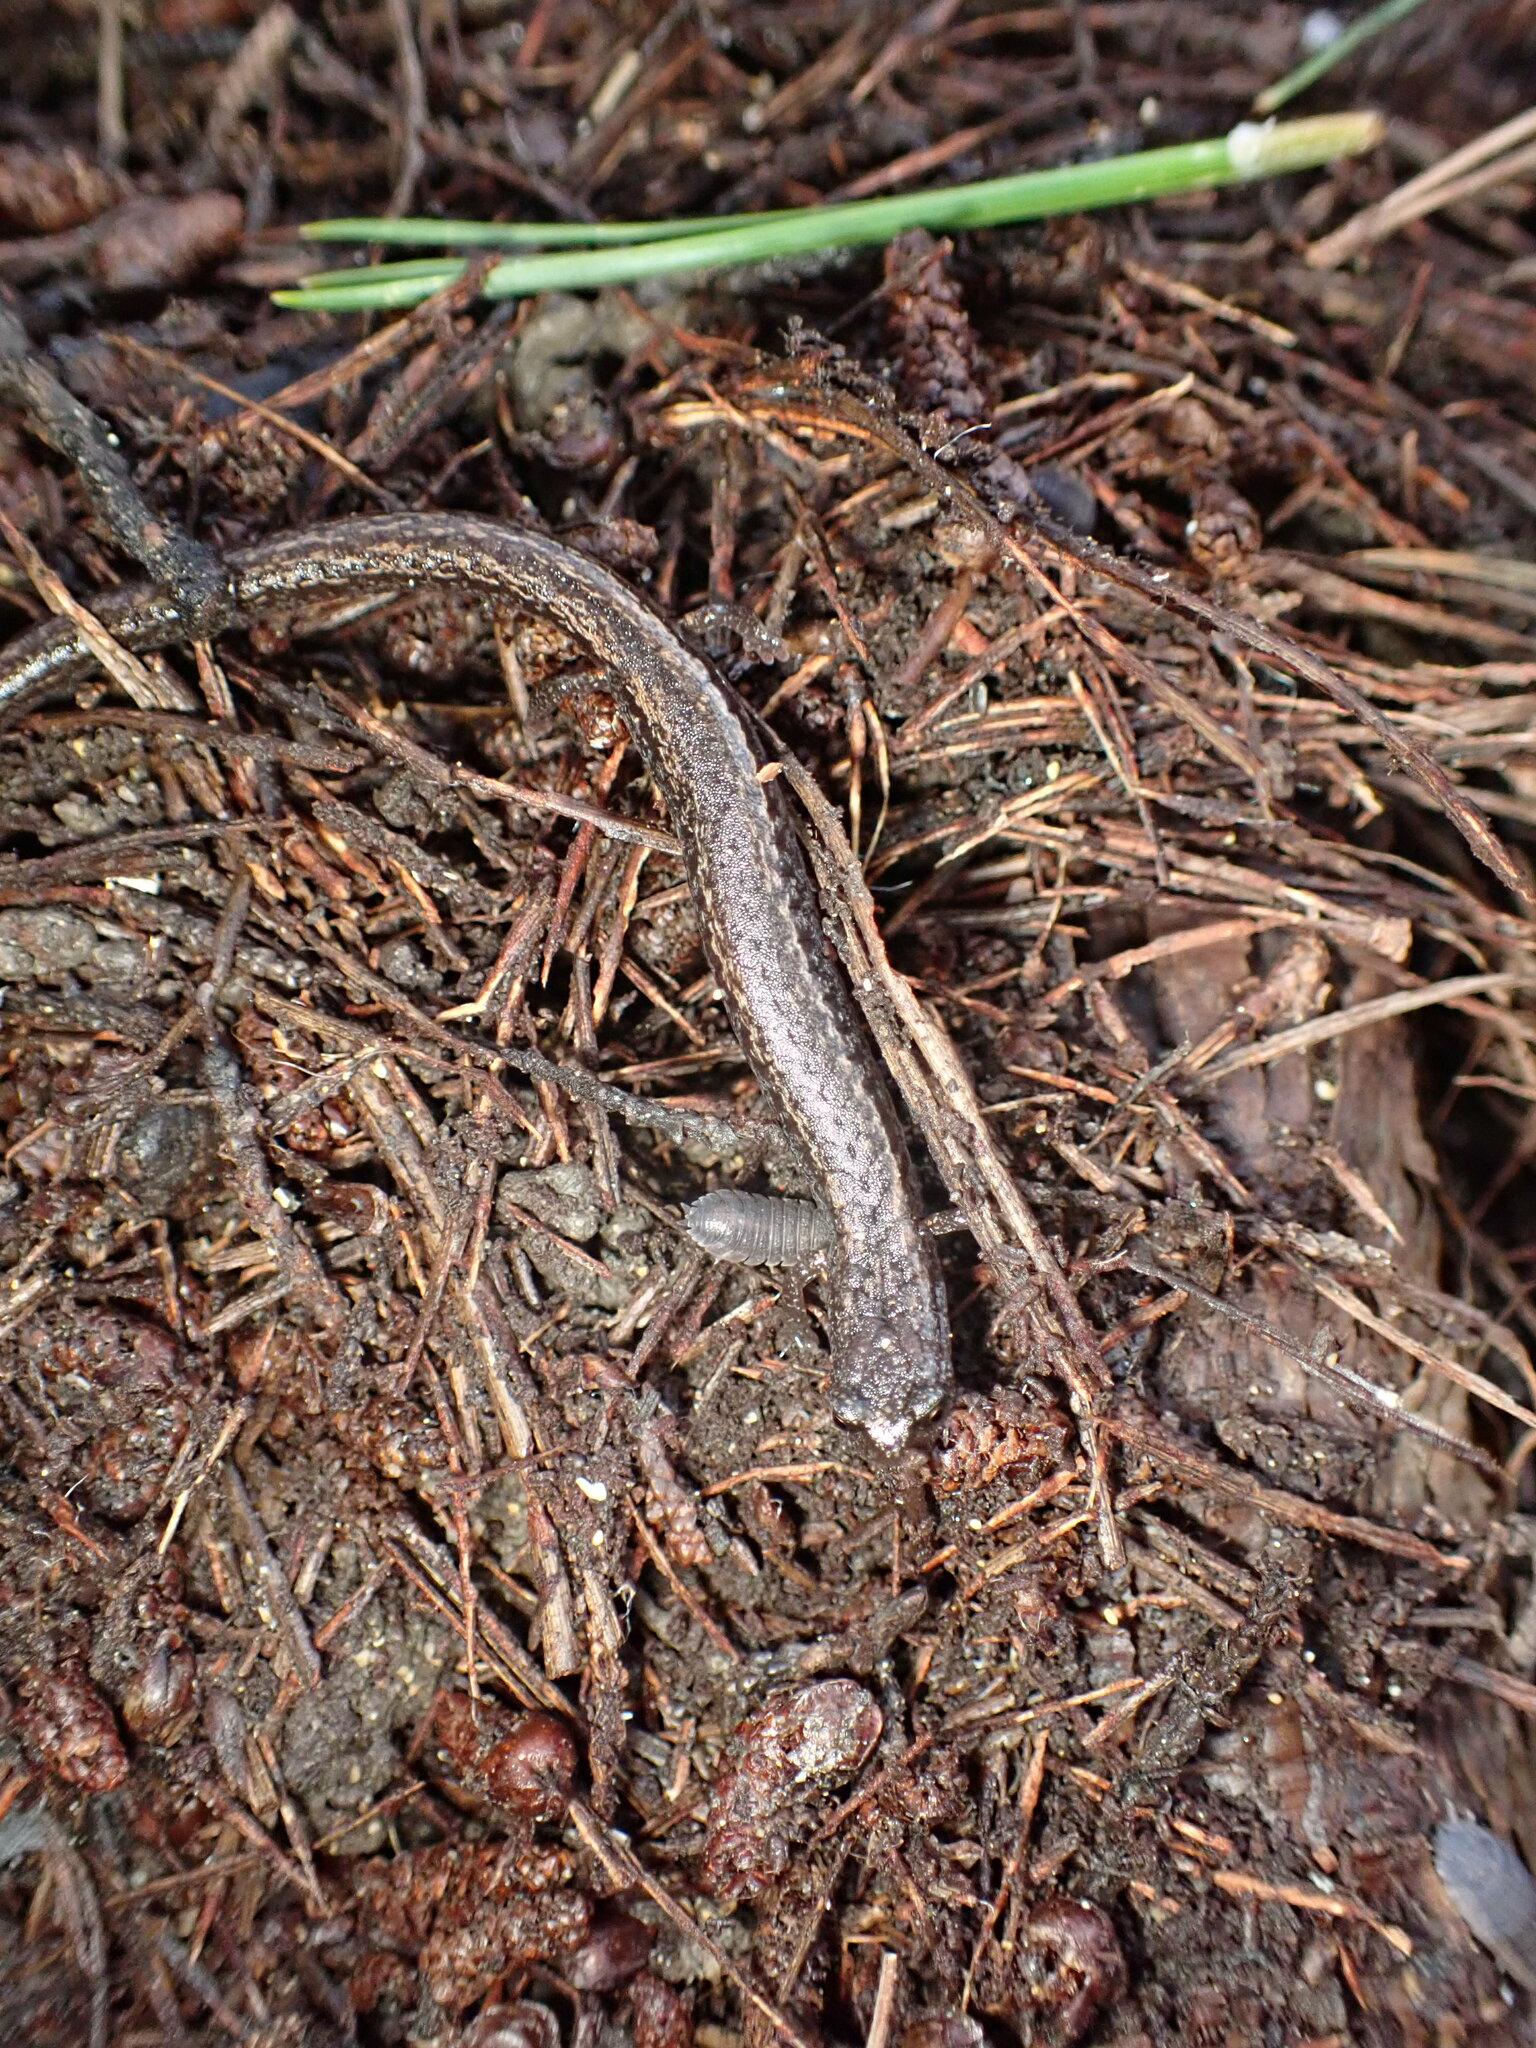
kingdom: Animalia
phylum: Chordata
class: Amphibia
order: Caudata
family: Plethodontidae
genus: Batrachoseps
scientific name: Batrachoseps attenuatus
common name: California slender salamander
